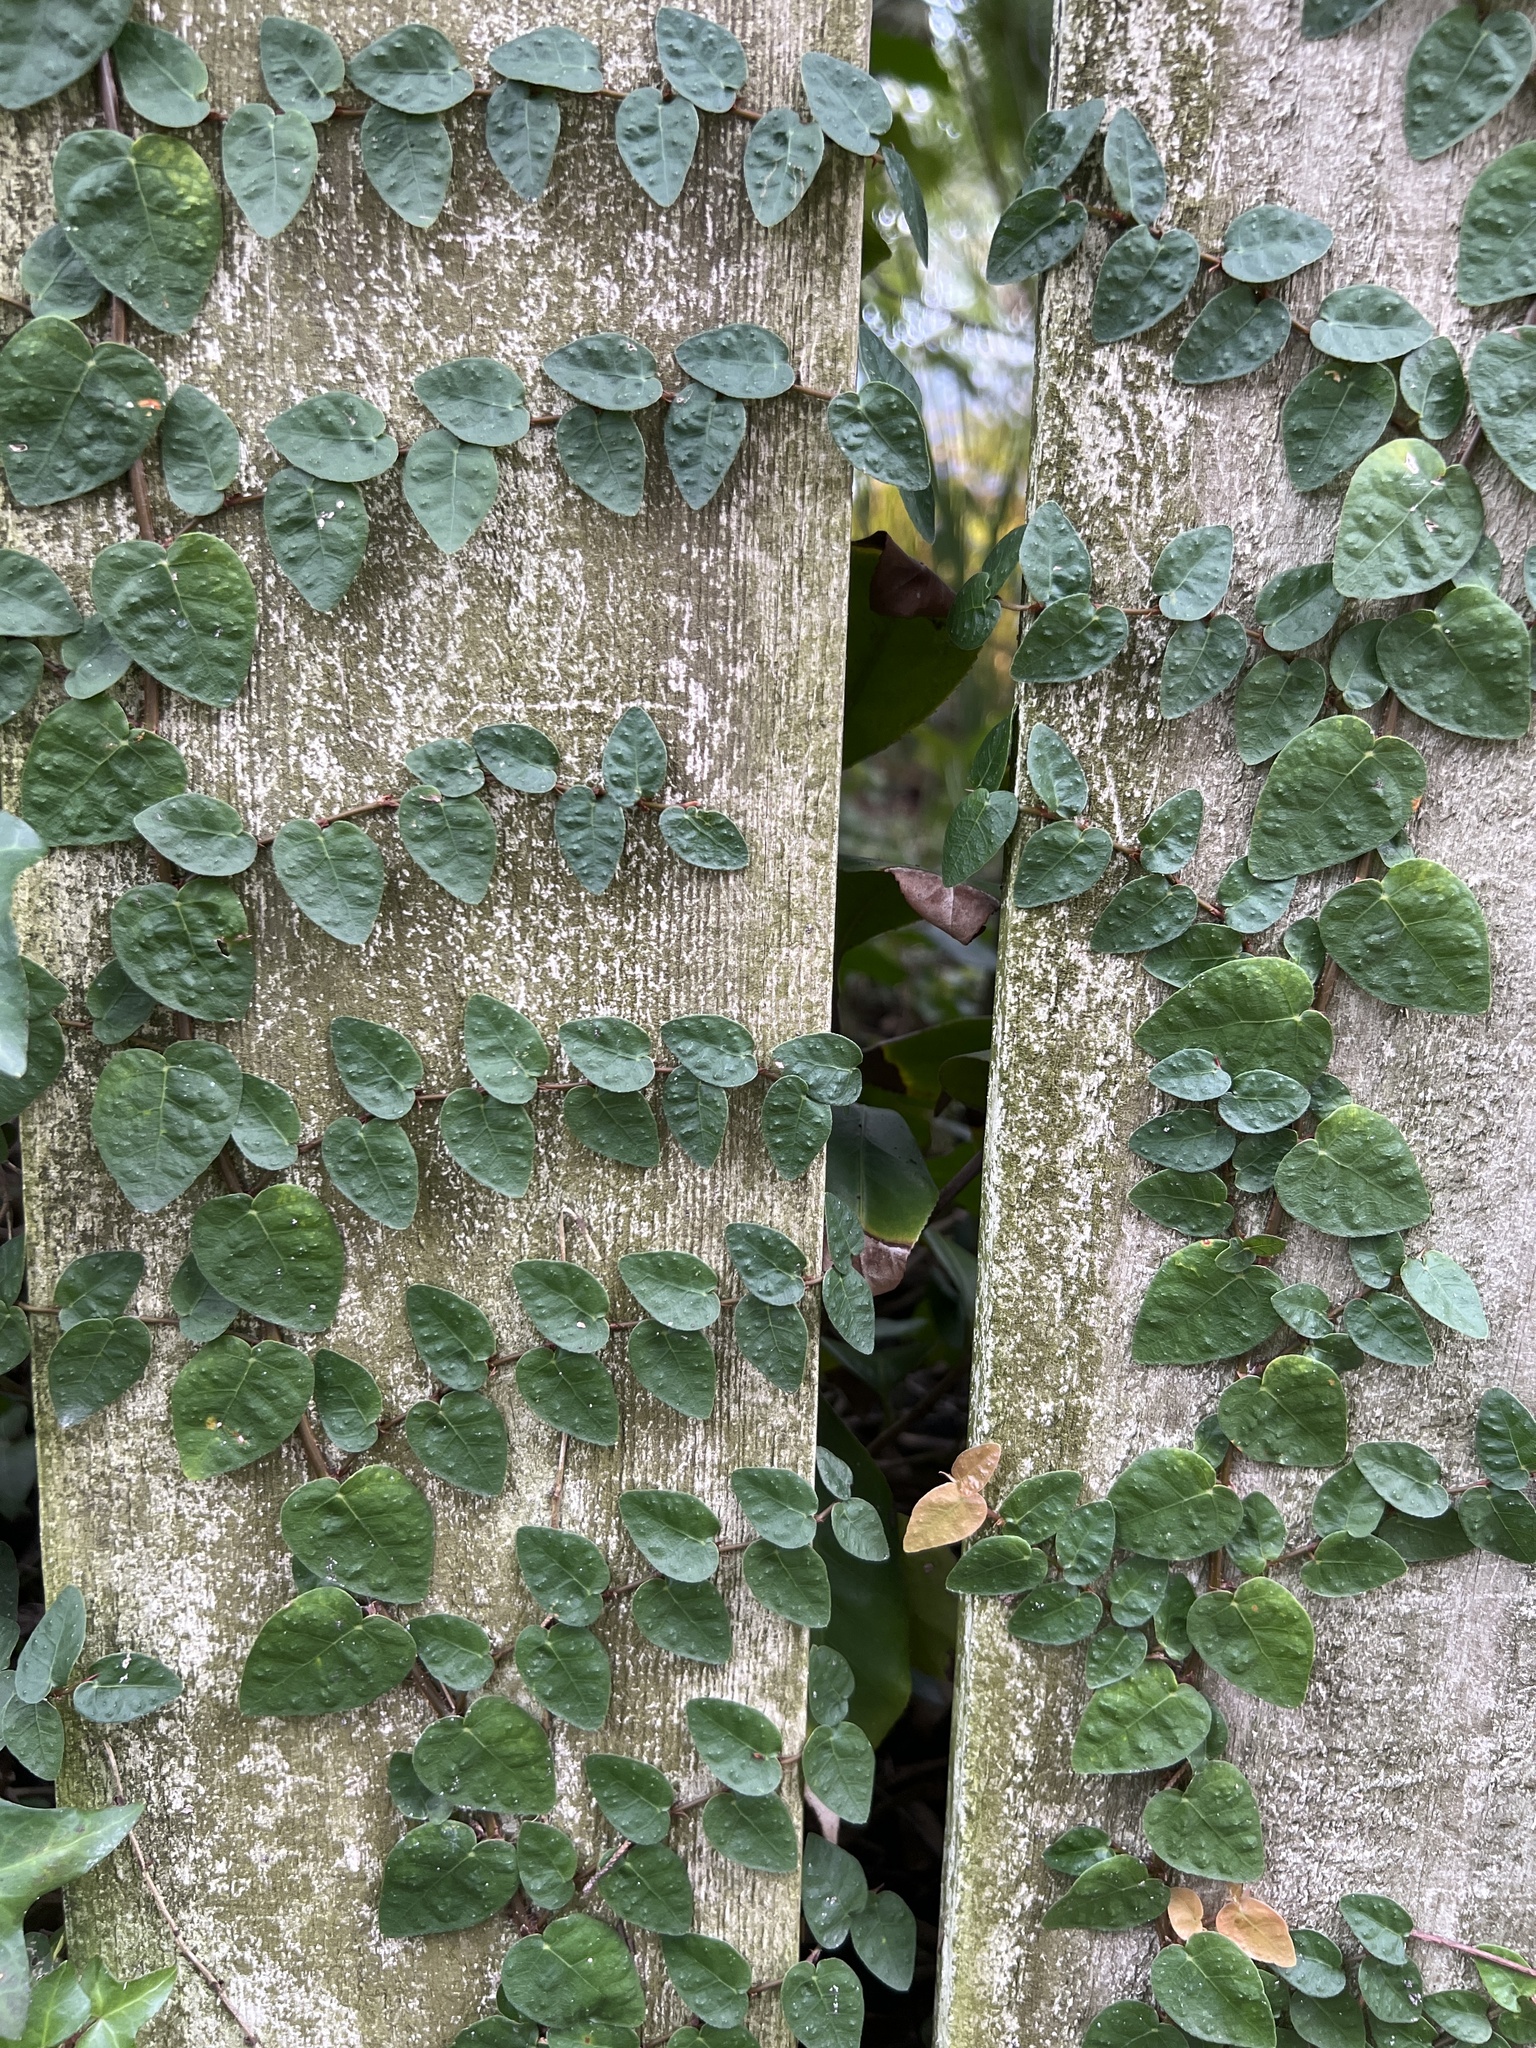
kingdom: Plantae
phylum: Tracheophyta
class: Magnoliopsida
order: Rosales
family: Moraceae
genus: Ficus
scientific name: Ficus pumila
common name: Climbingfig
